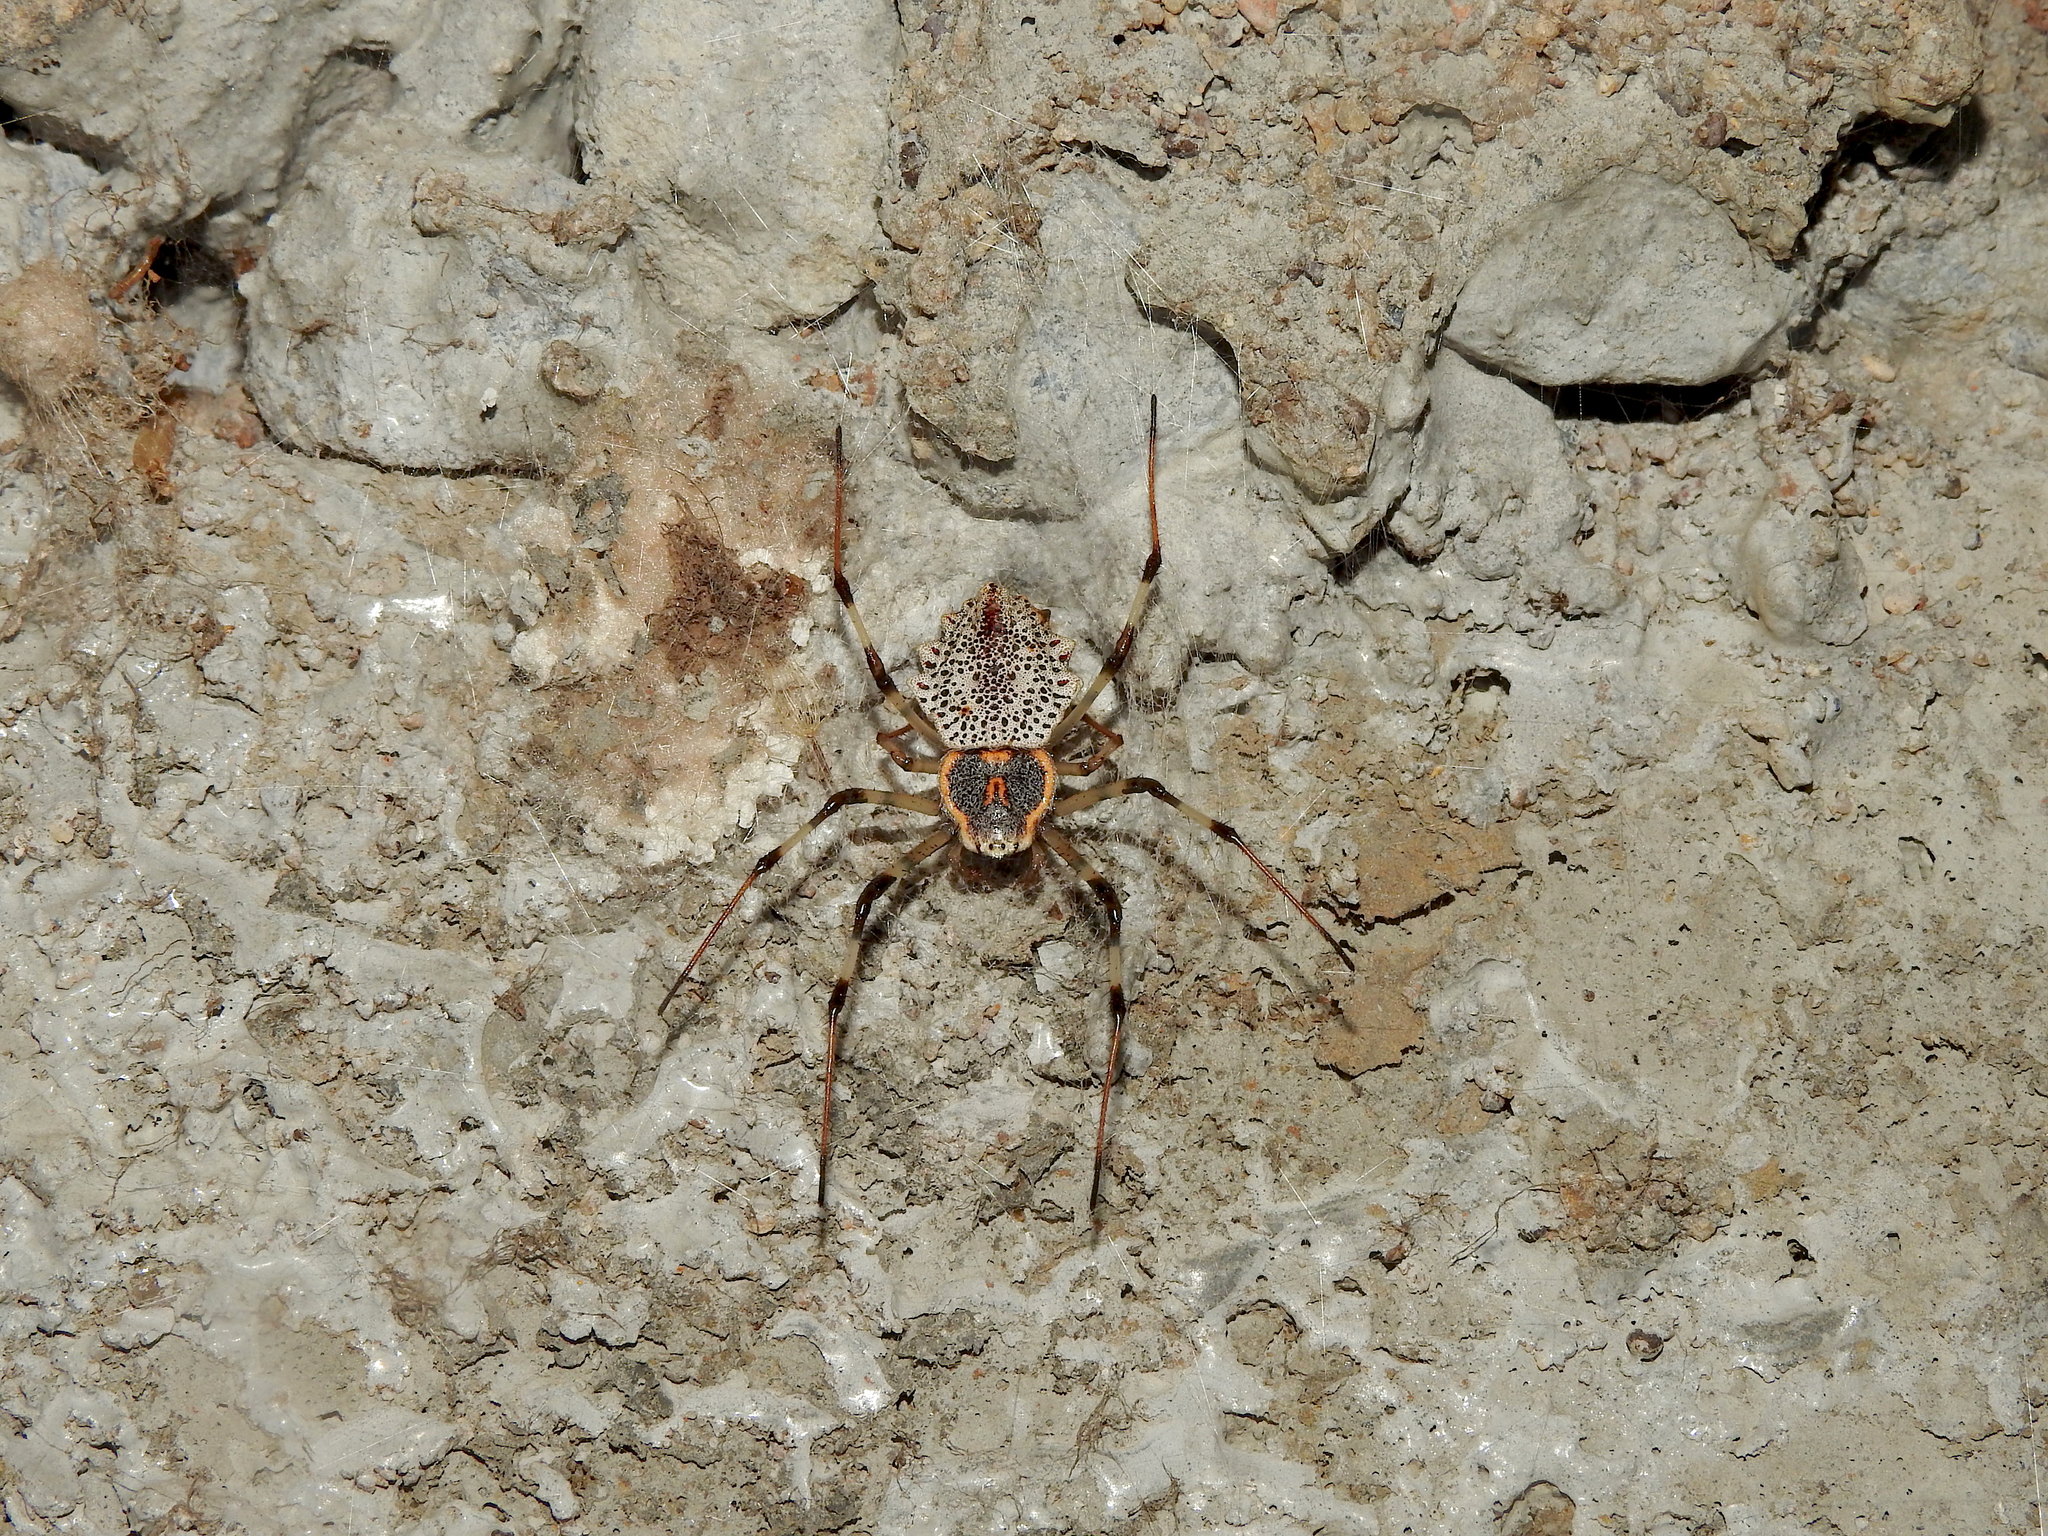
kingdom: Animalia
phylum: Arthropoda
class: Arachnida
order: Araneae
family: Araneidae
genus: Herennia
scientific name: Herennia multipuncta
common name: Spotted coin spider
